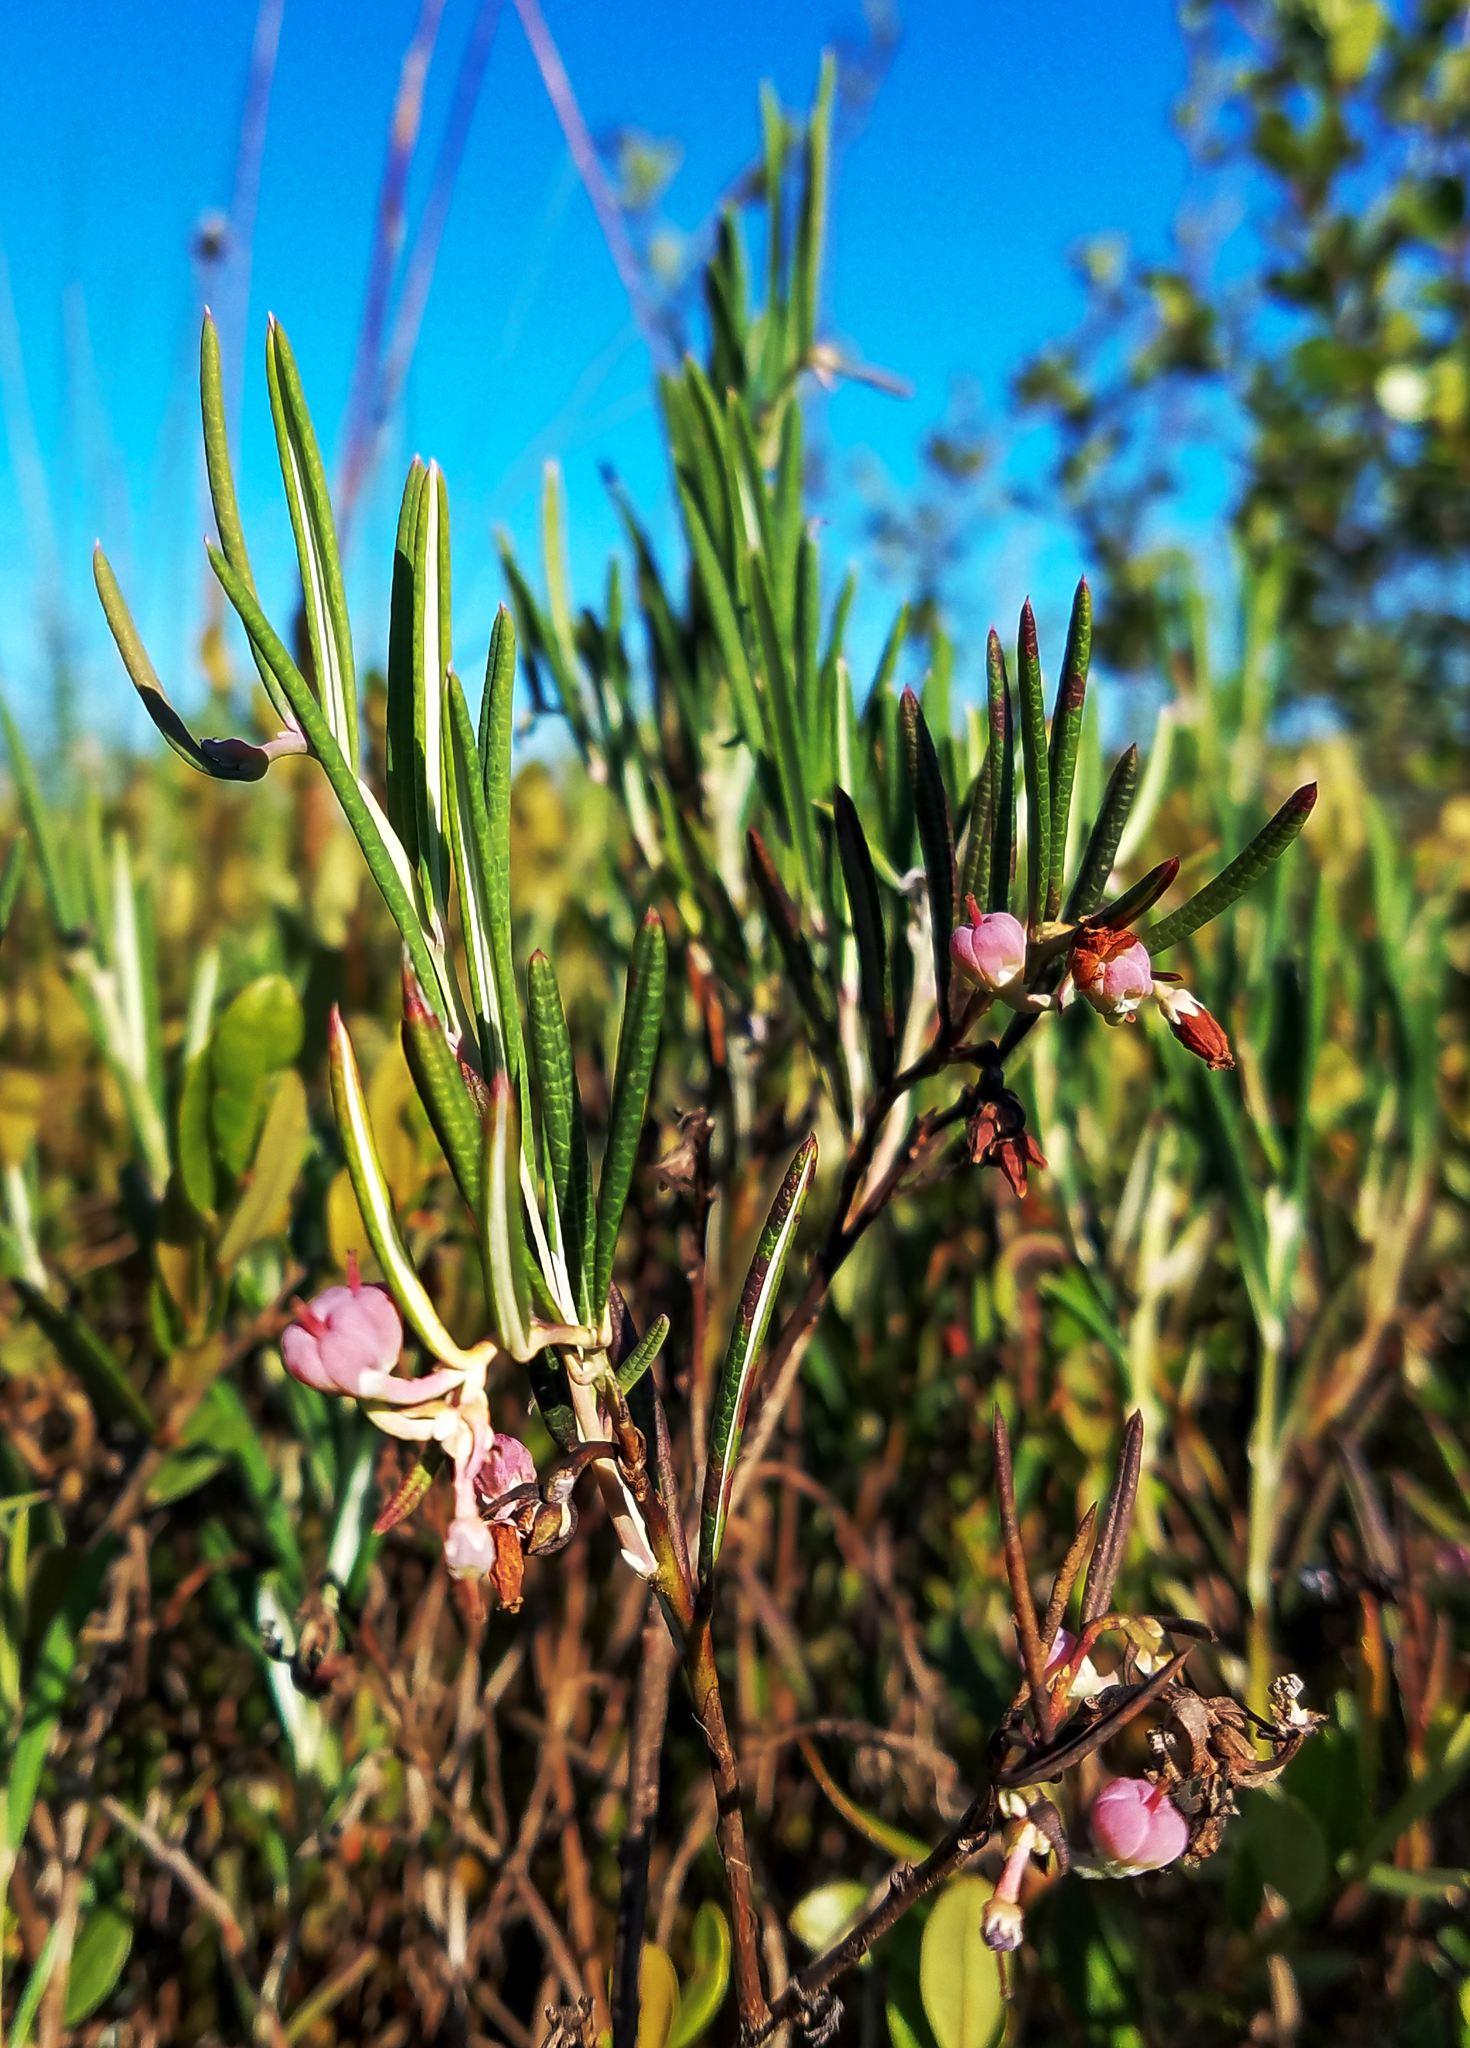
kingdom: Plantae
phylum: Tracheophyta
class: Magnoliopsida
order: Ericales
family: Ericaceae
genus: Andromeda
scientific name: Andromeda polifolia
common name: Bog-rosemary
